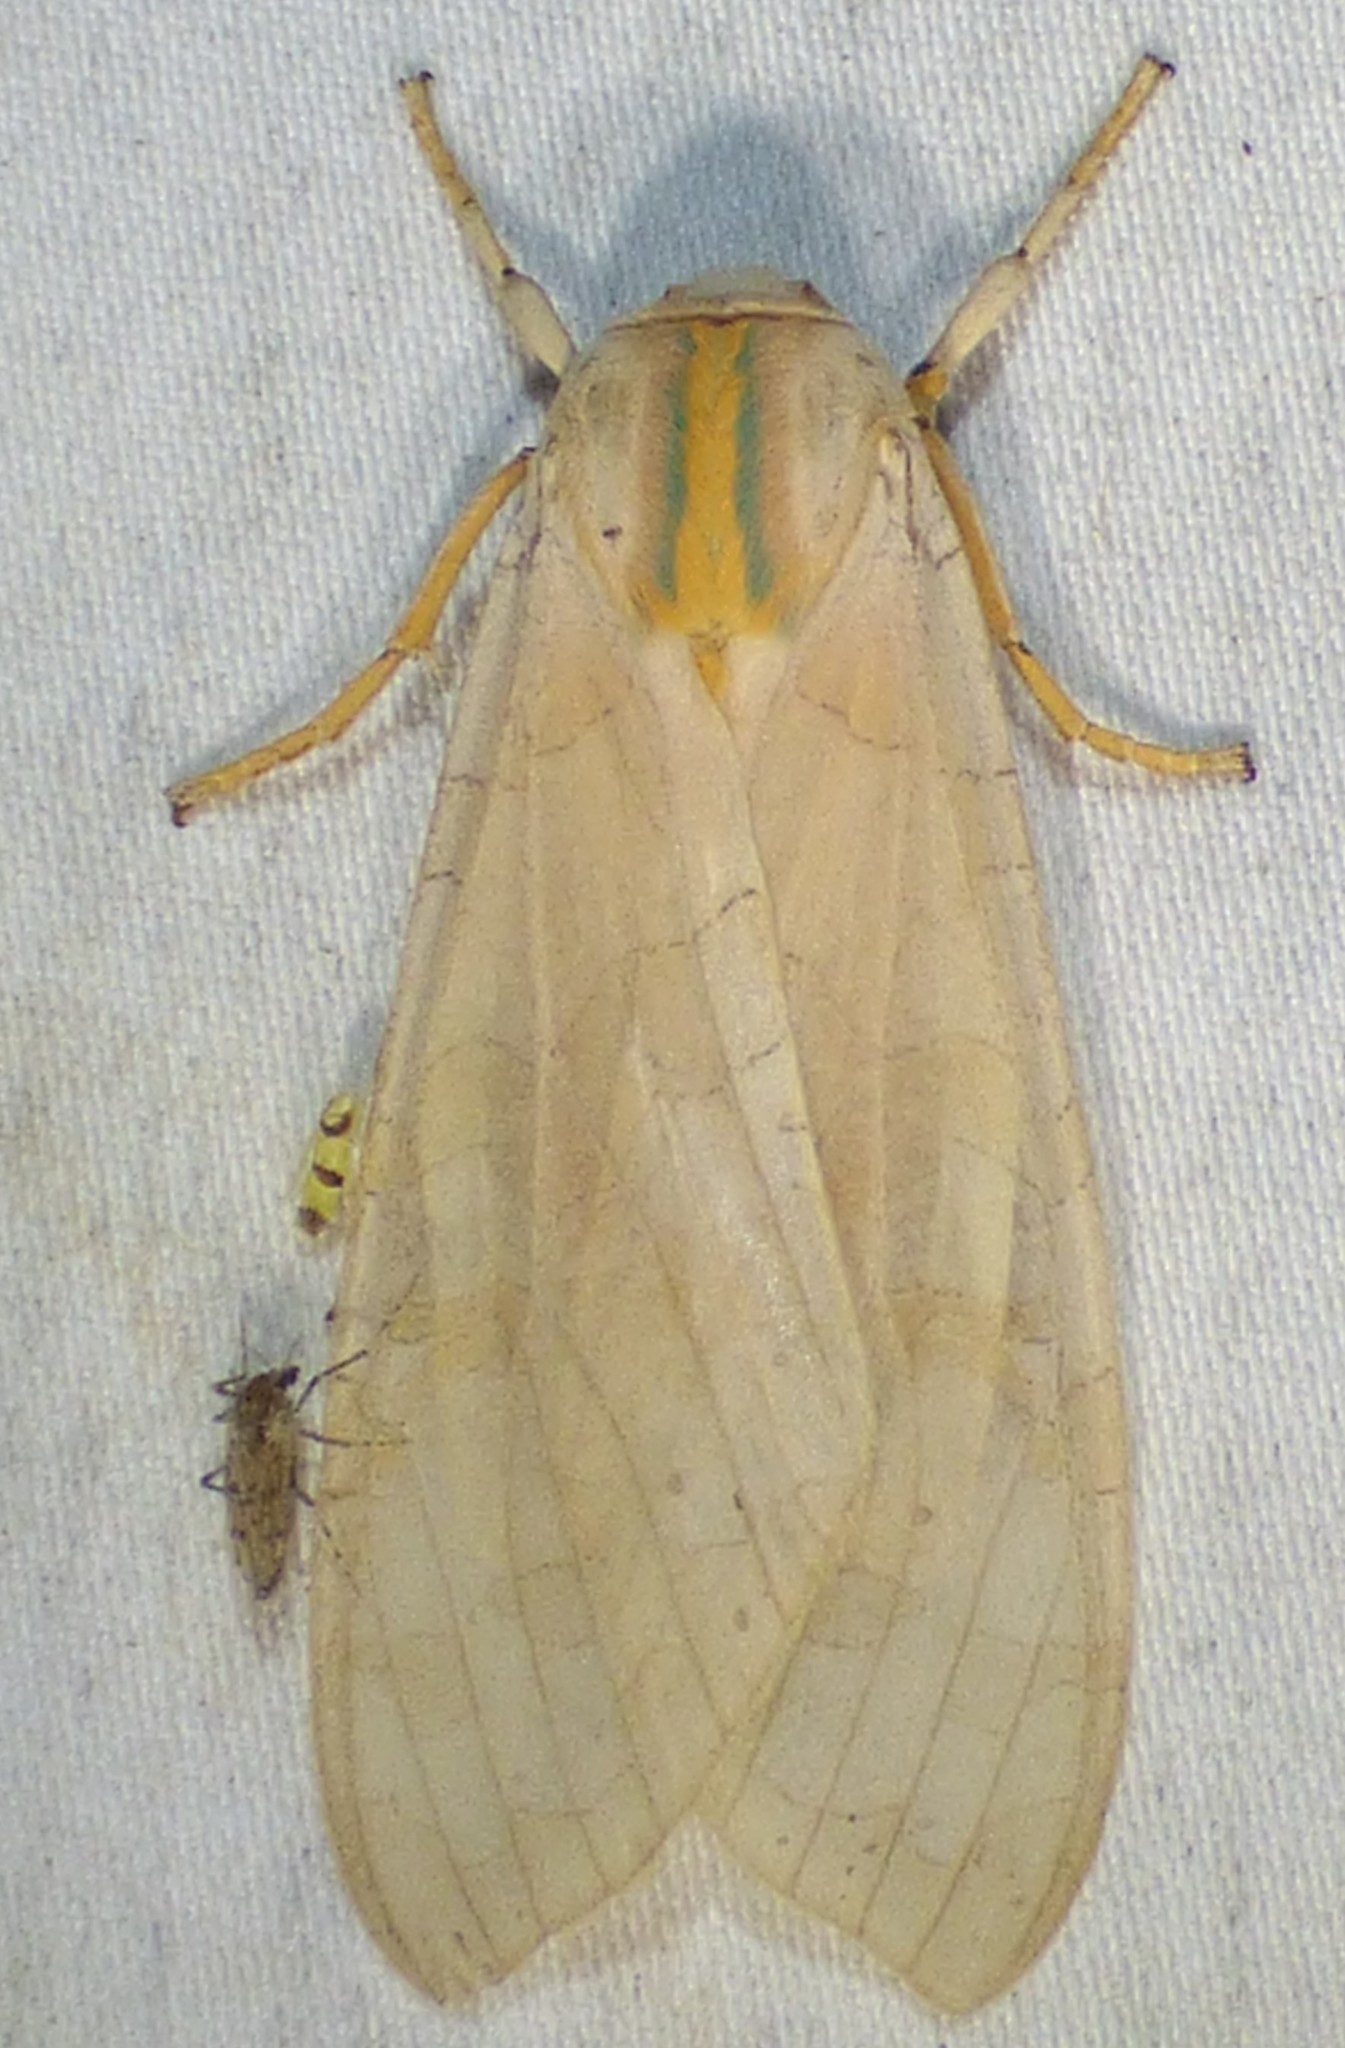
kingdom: Animalia
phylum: Arthropoda
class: Insecta
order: Lepidoptera
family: Erebidae
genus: Halysidota
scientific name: Halysidota
